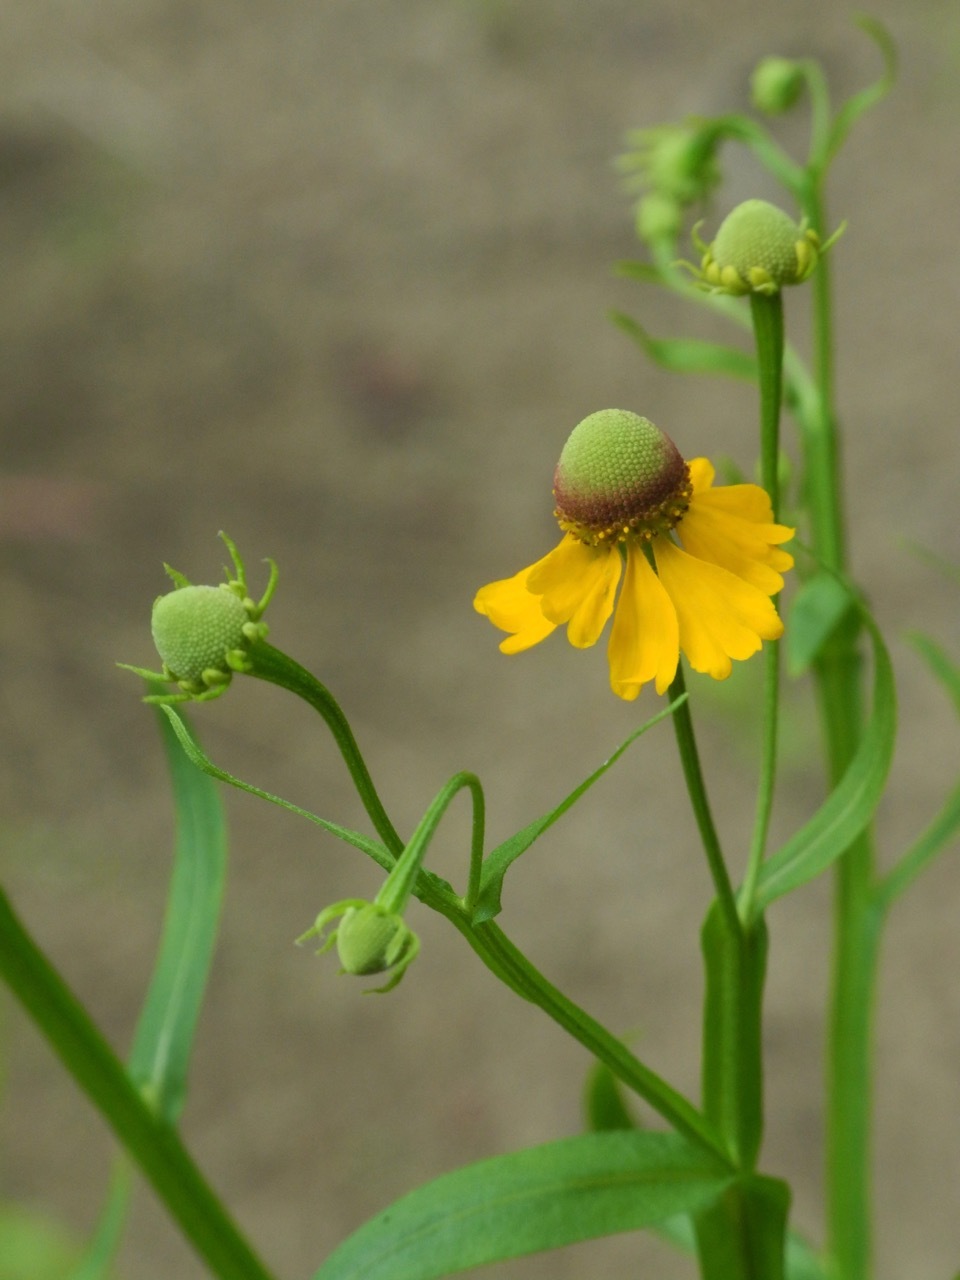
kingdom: Plantae
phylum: Tracheophyta
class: Magnoliopsida
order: Asterales
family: Asteraceae
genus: Helenium
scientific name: Helenium flexuosum
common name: Naked-flowered sneezeweed
